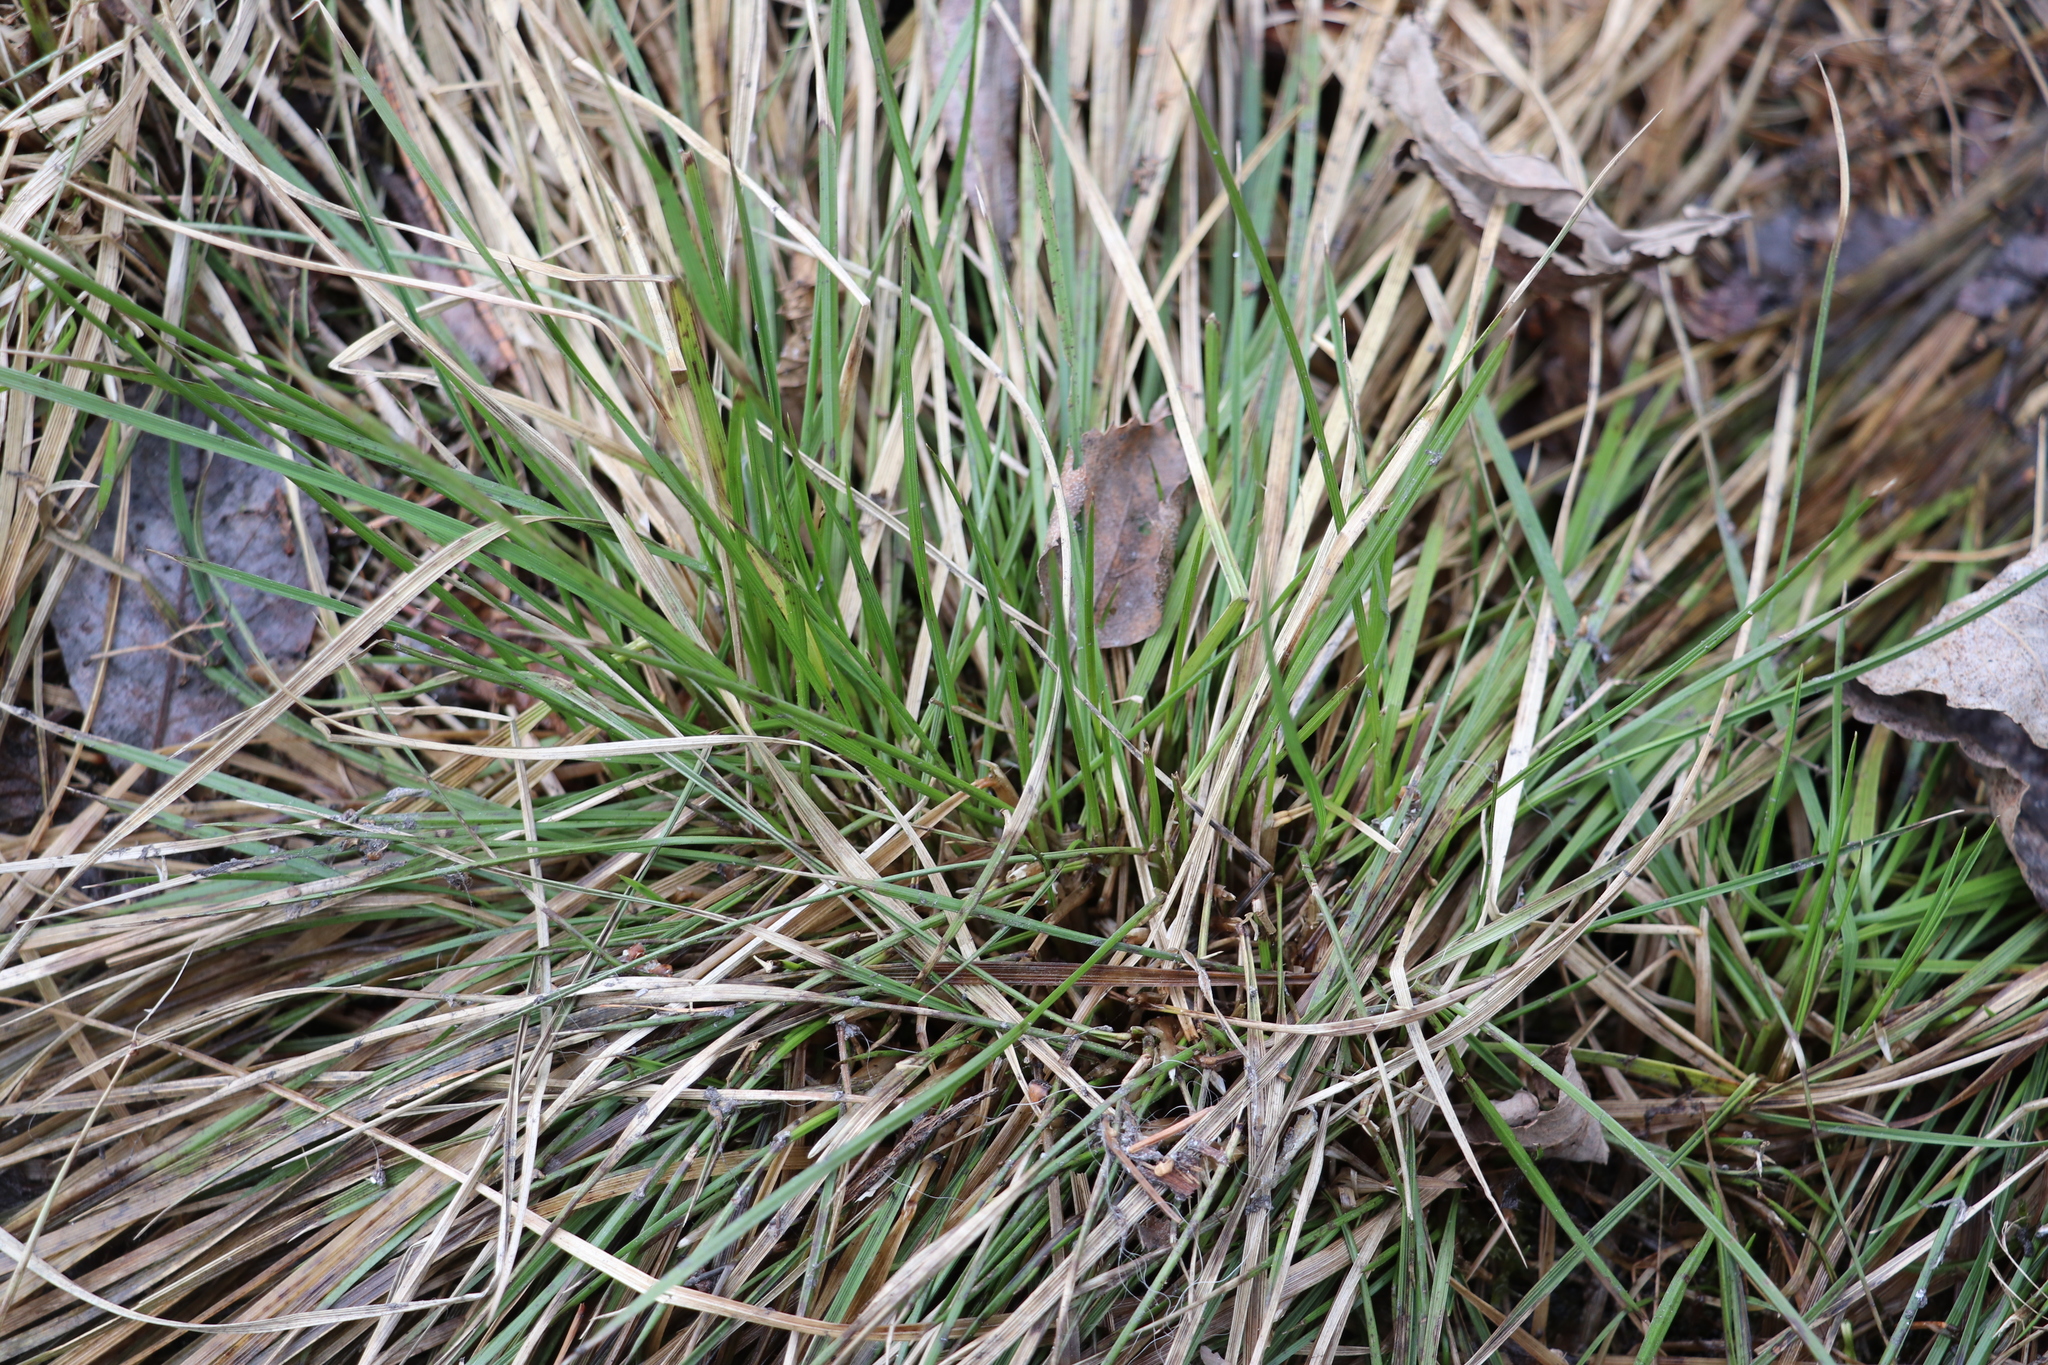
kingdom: Plantae
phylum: Tracheophyta
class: Liliopsida
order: Poales
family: Poaceae
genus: Deschampsia
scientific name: Deschampsia cespitosa
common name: Tufted hair-grass
